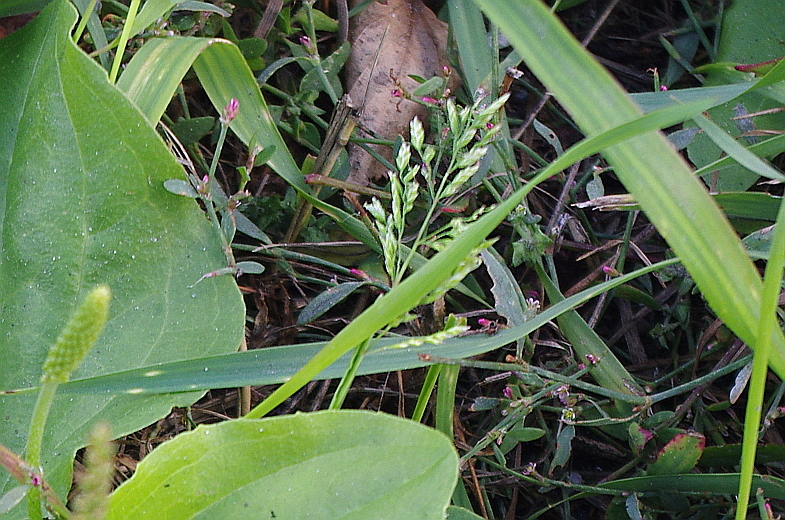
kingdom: Plantae
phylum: Tracheophyta
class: Liliopsida
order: Poales
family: Poaceae
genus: Poa
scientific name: Poa annua
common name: Annual bluegrass
